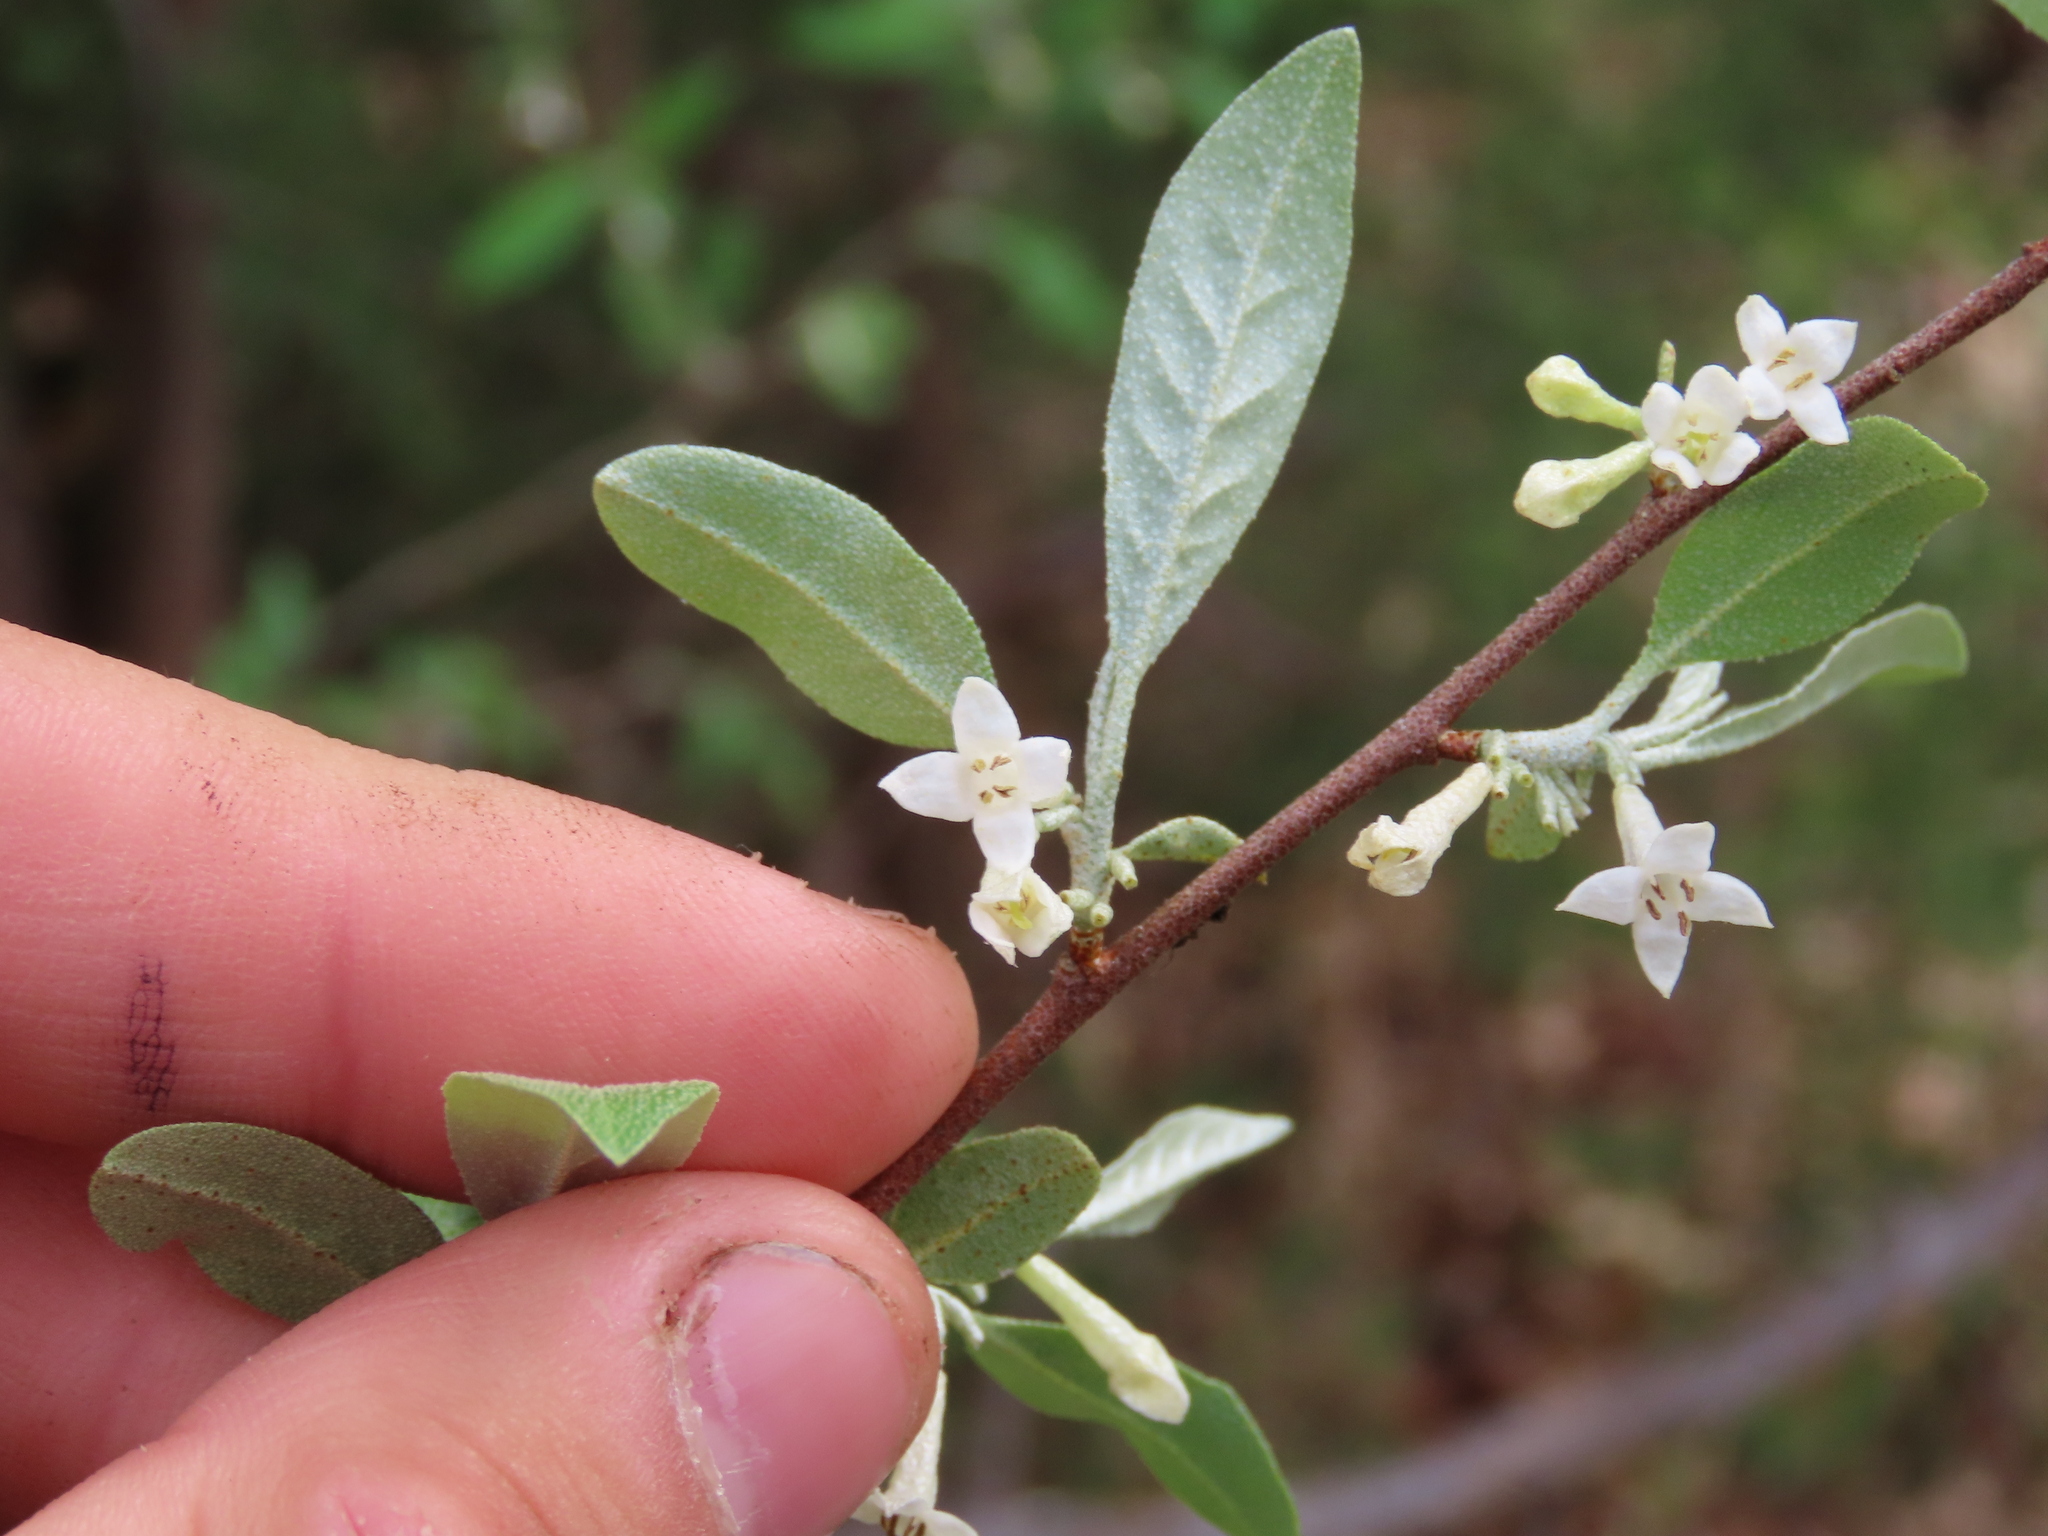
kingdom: Plantae
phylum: Tracheophyta
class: Magnoliopsida
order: Rosales
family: Elaeagnaceae
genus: Elaeagnus
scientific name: Elaeagnus umbellata
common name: Autumn olive
